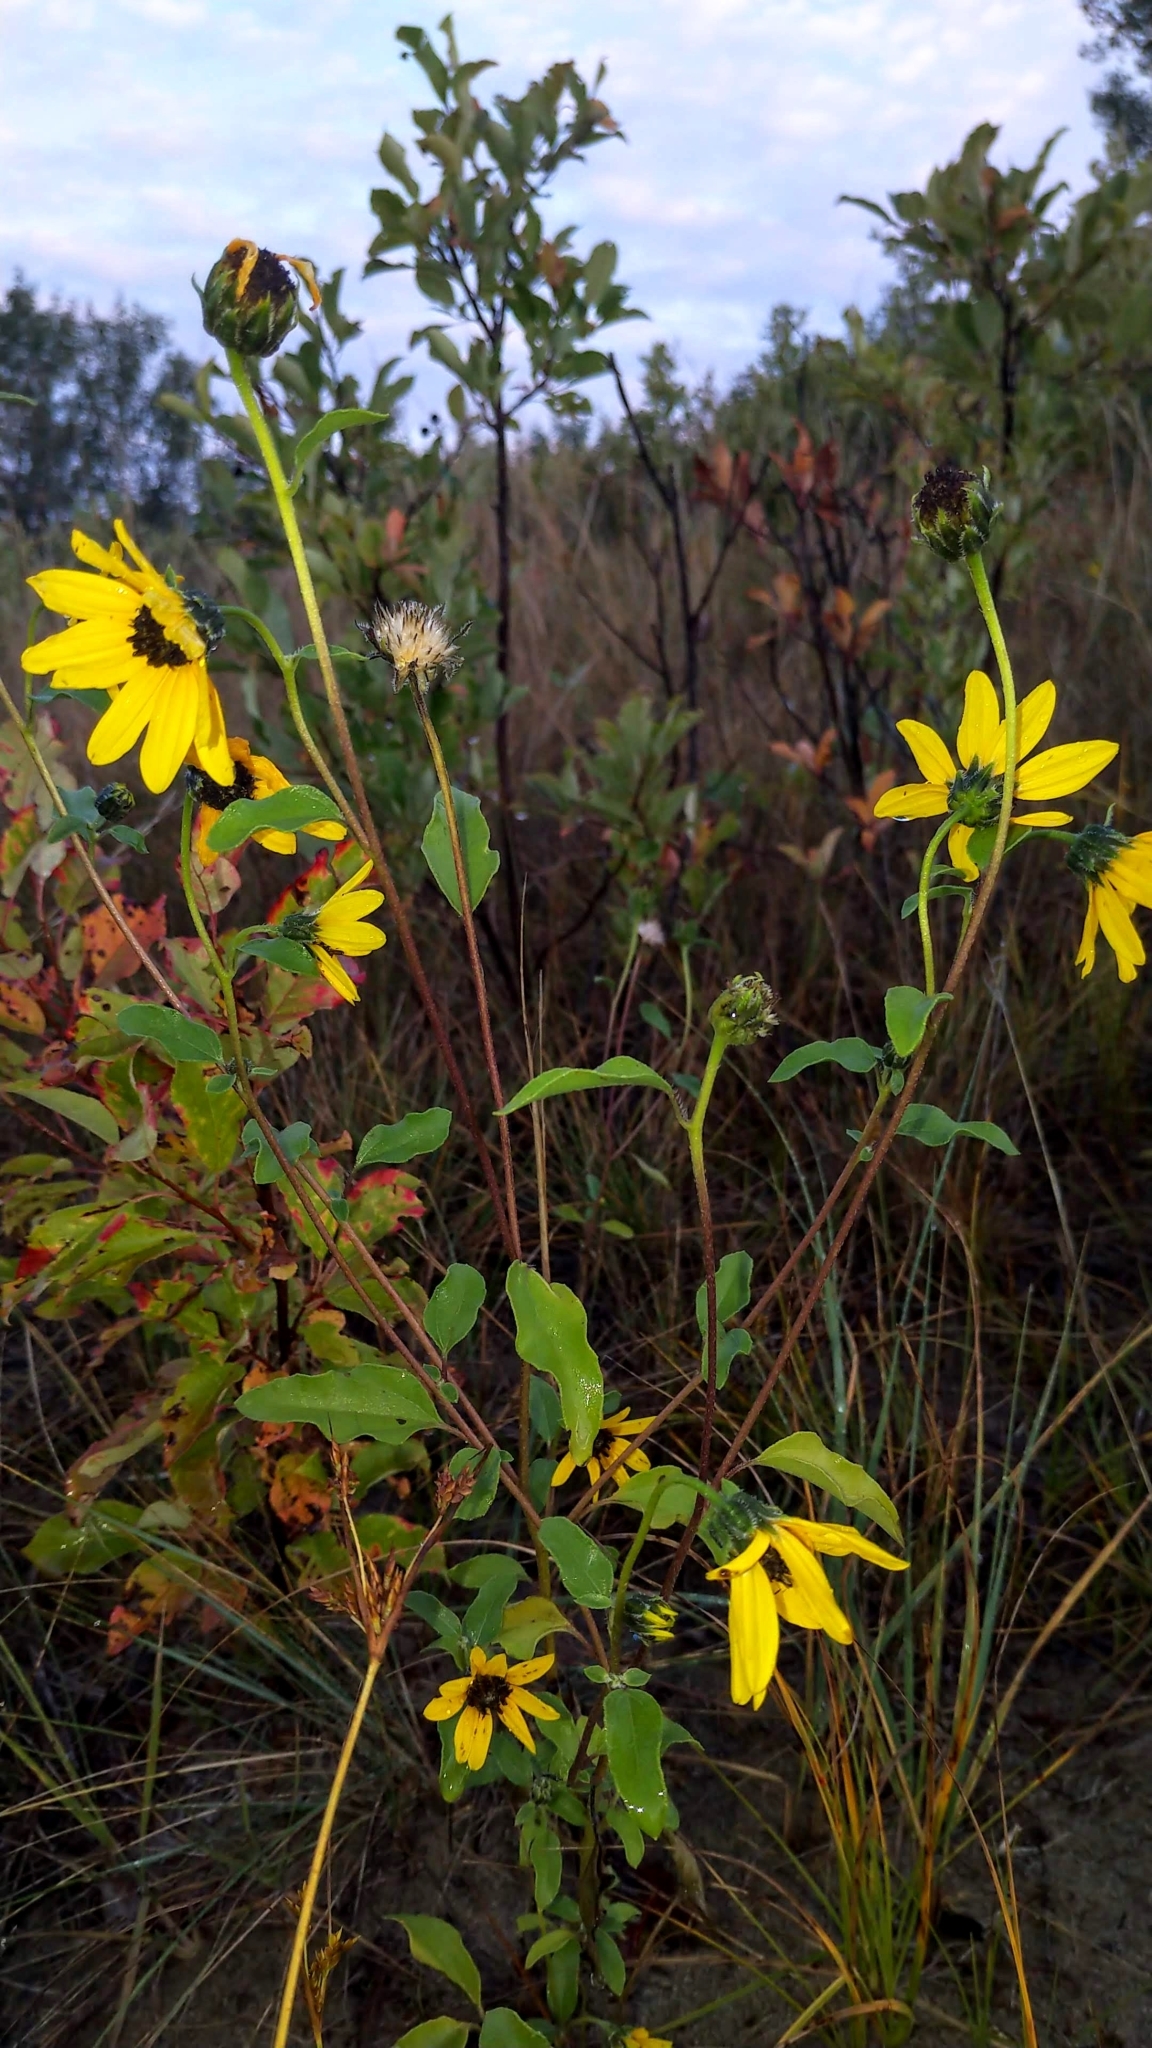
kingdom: Plantae
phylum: Tracheophyta
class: Magnoliopsida
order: Asterales
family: Asteraceae
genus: Helianthus
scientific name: Helianthus petiolaris
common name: Lesser sunflower
